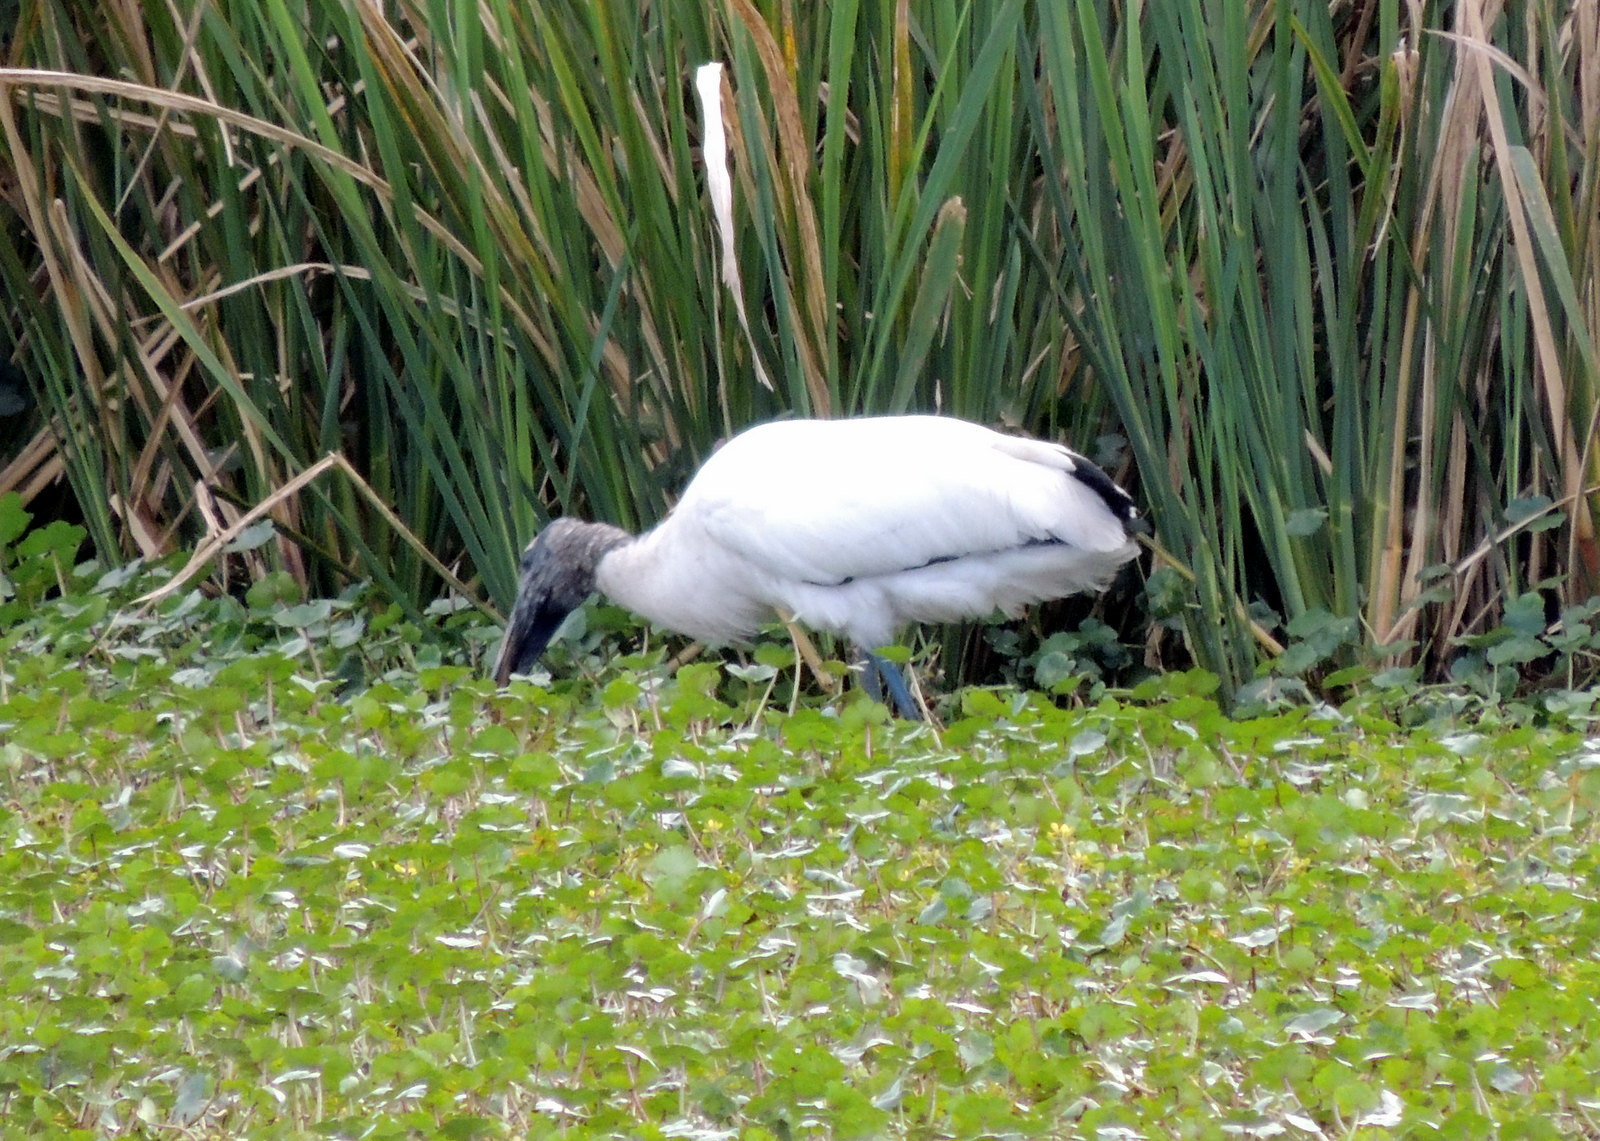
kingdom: Animalia
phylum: Chordata
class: Aves
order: Ciconiiformes
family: Ciconiidae
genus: Mycteria
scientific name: Mycteria americana
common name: Wood stork
